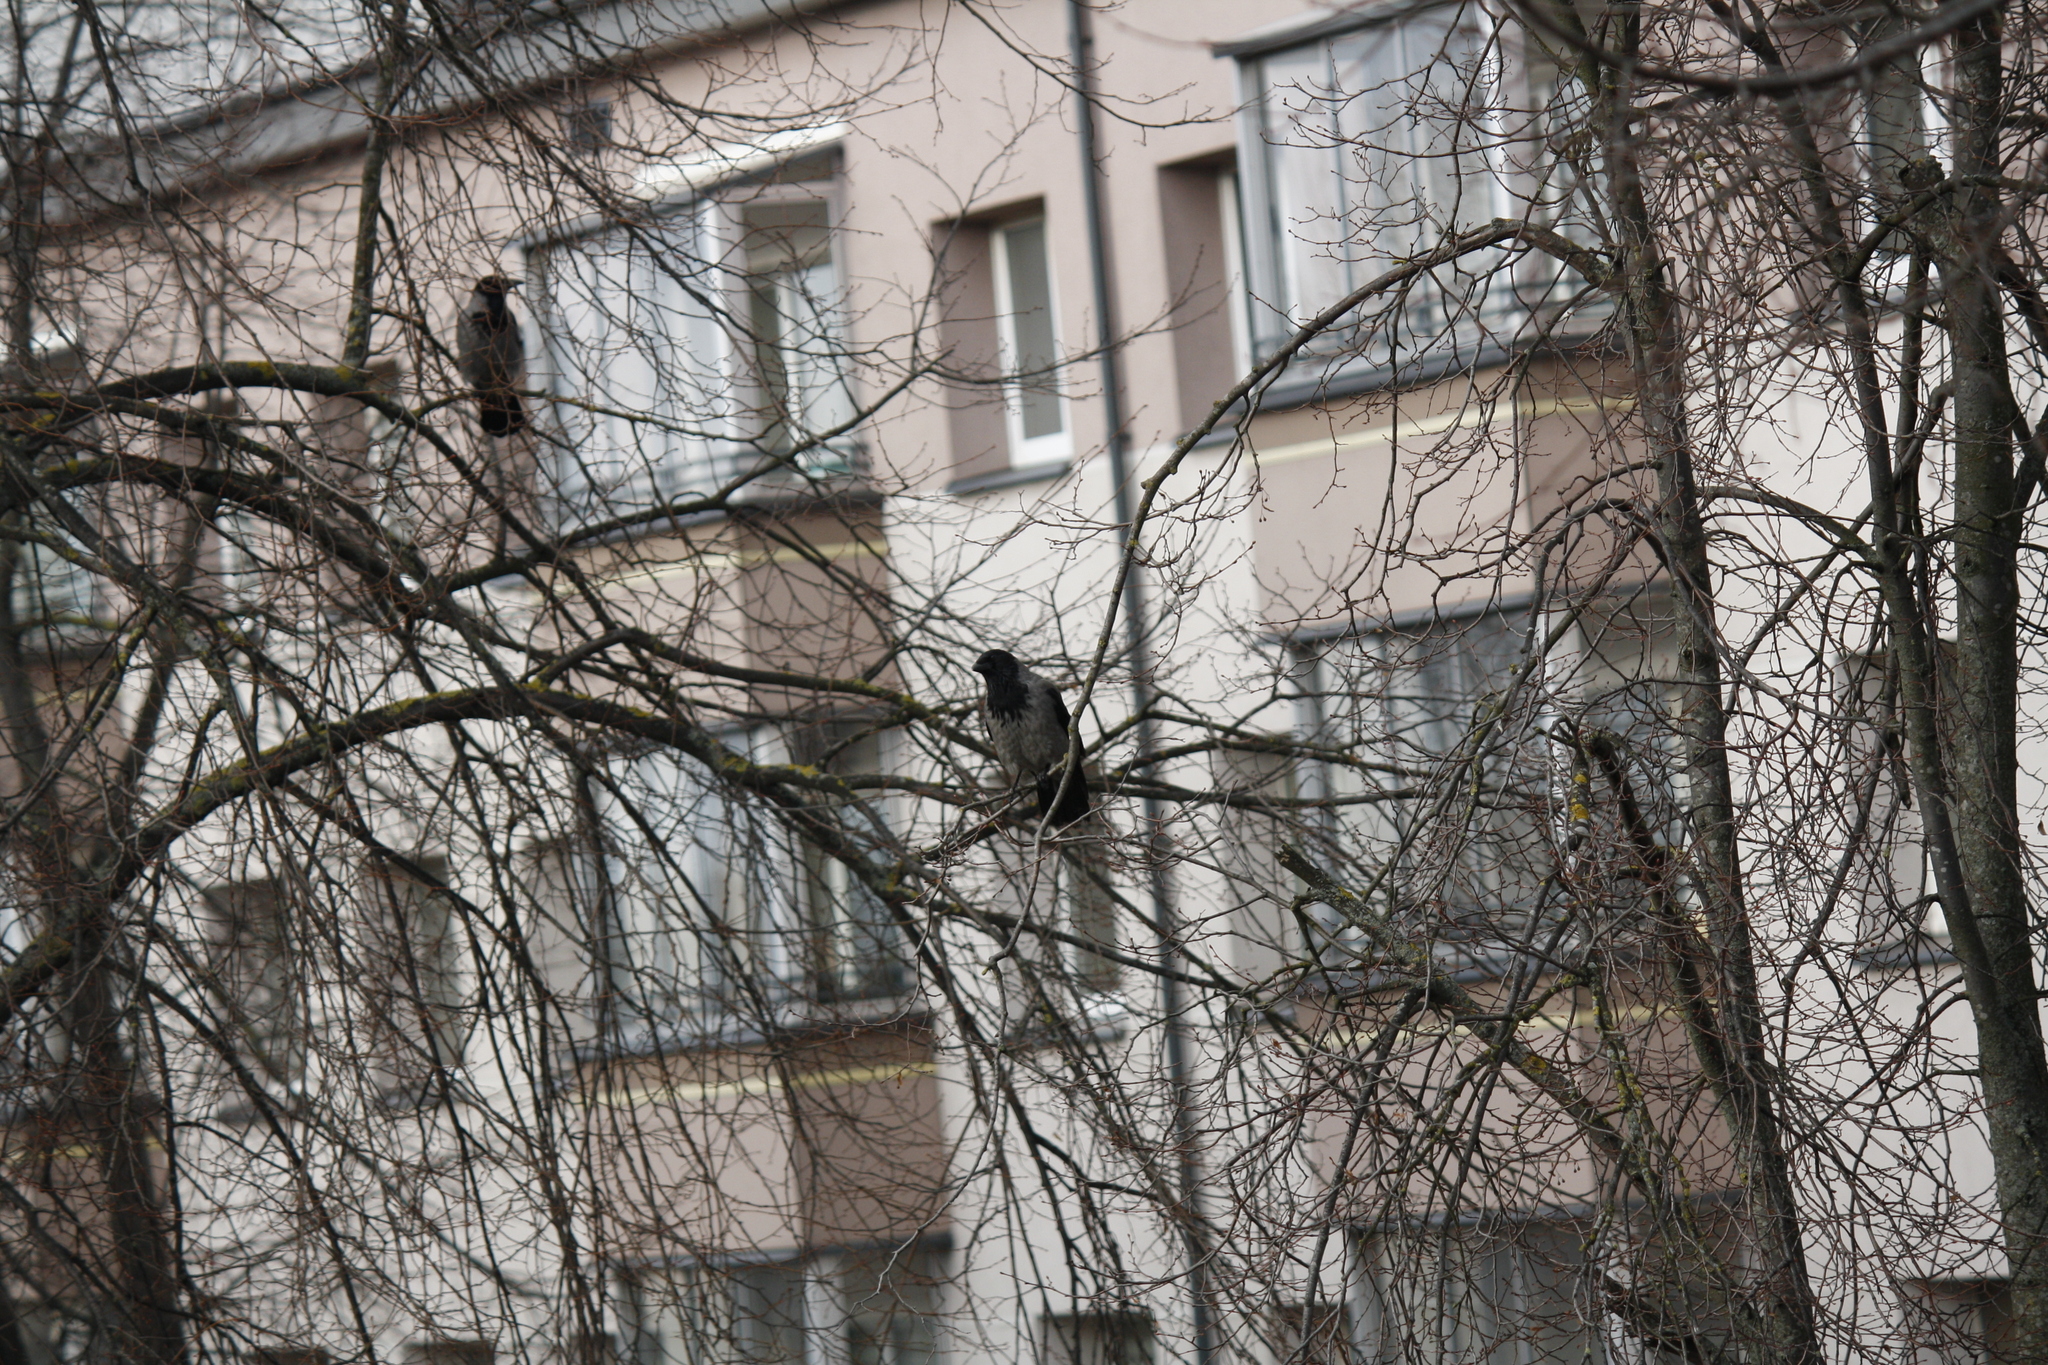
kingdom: Animalia
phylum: Chordata
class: Aves
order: Passeriformes
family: Corvidae
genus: Corvus
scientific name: Corvus cornix
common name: Hooded crow
